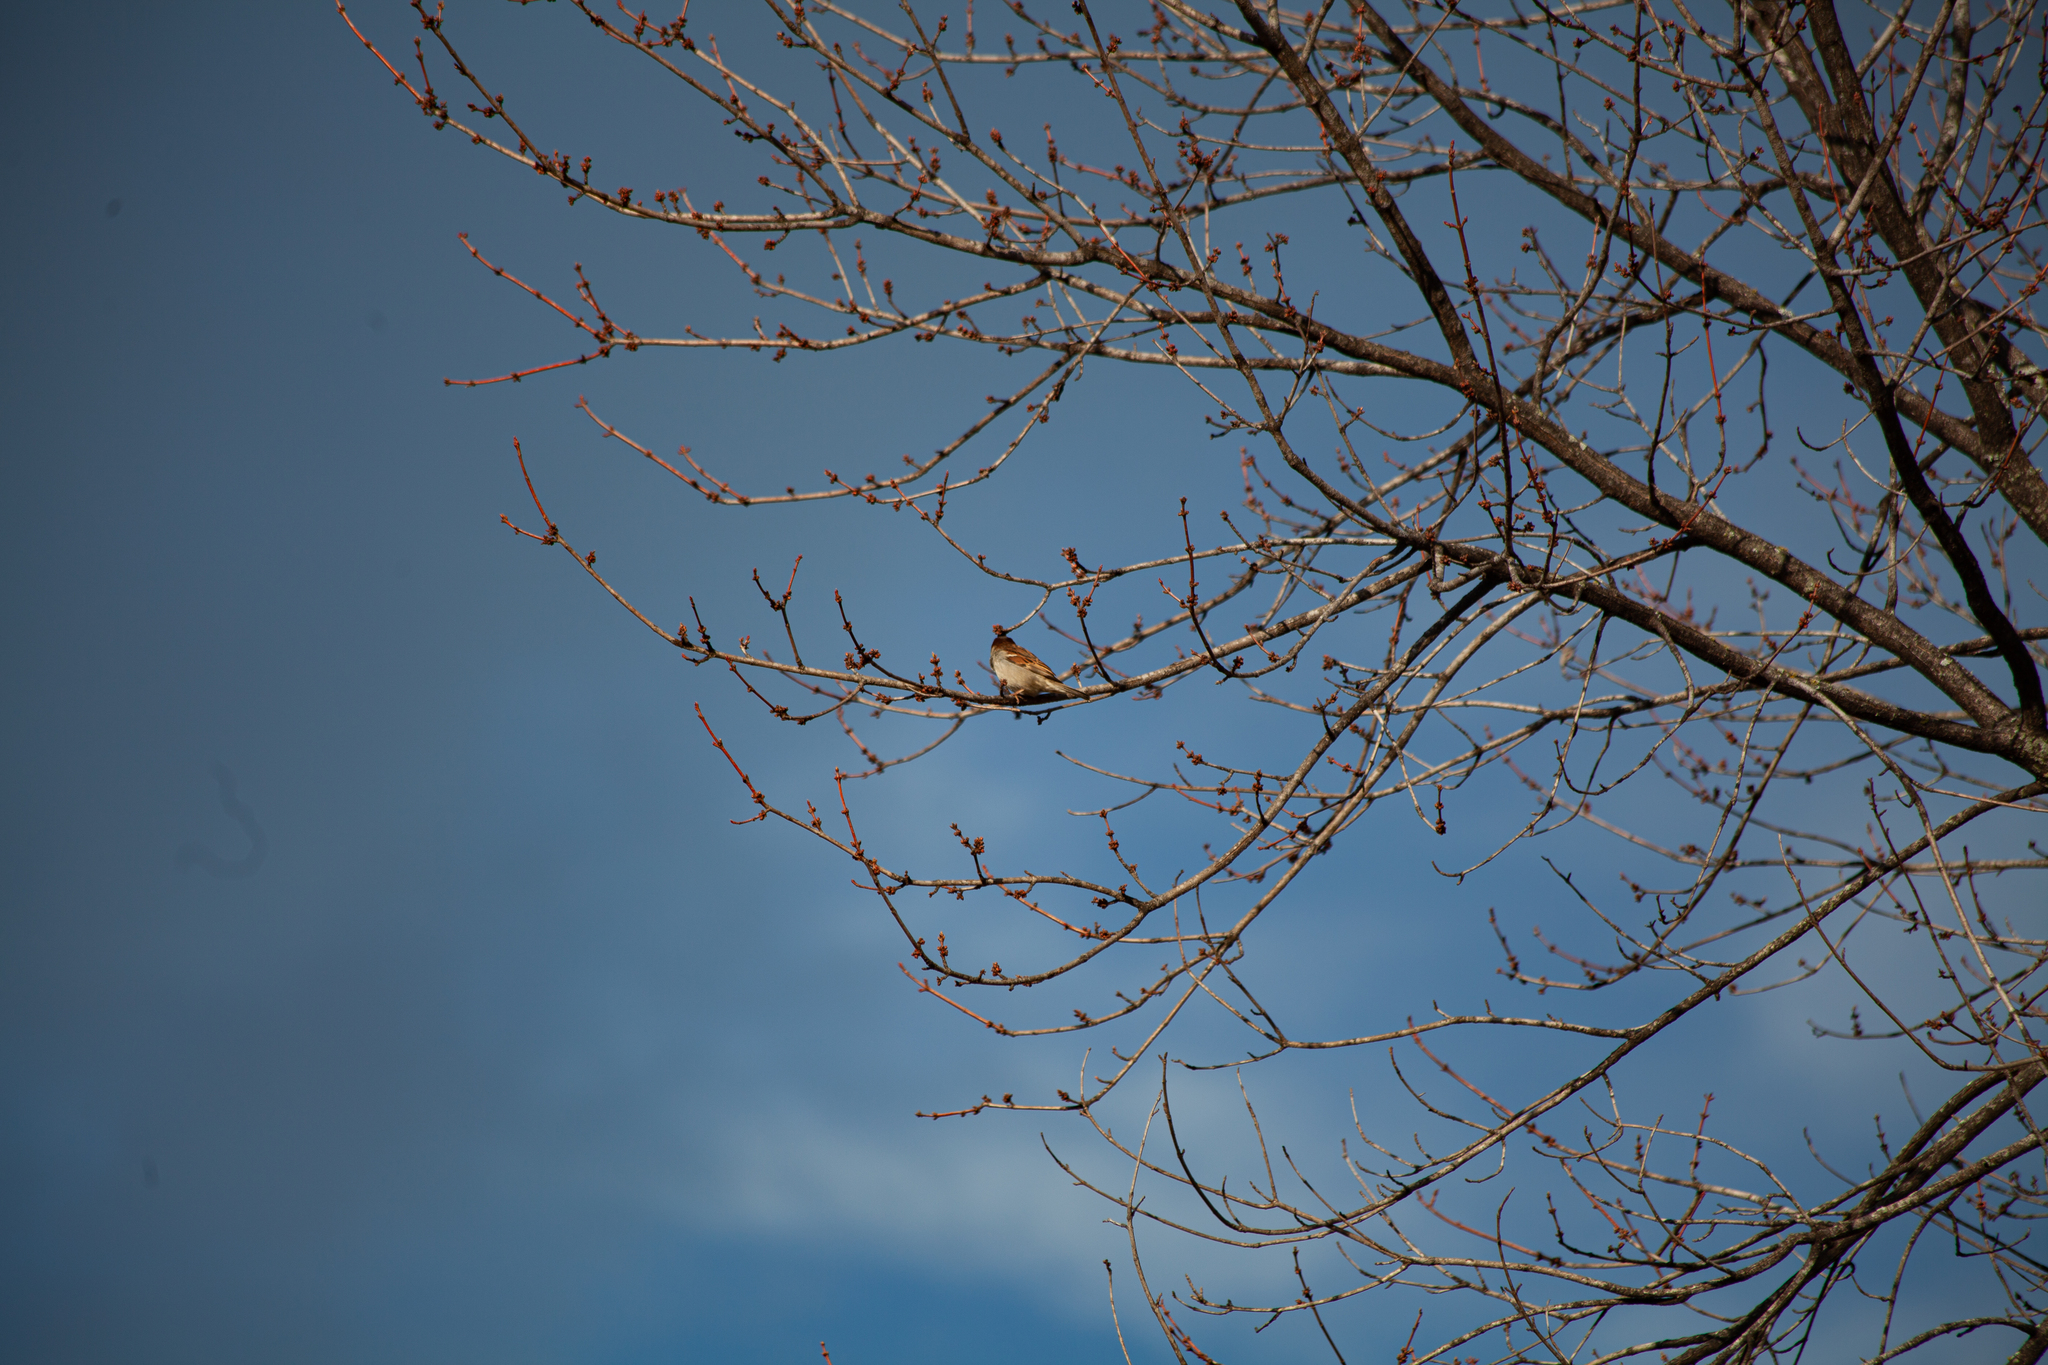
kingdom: Animalia
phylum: Chordata
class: Aves
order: Passeriformes
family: Passeridae
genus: Passer
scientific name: Passer domesticus
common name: House sparrow
